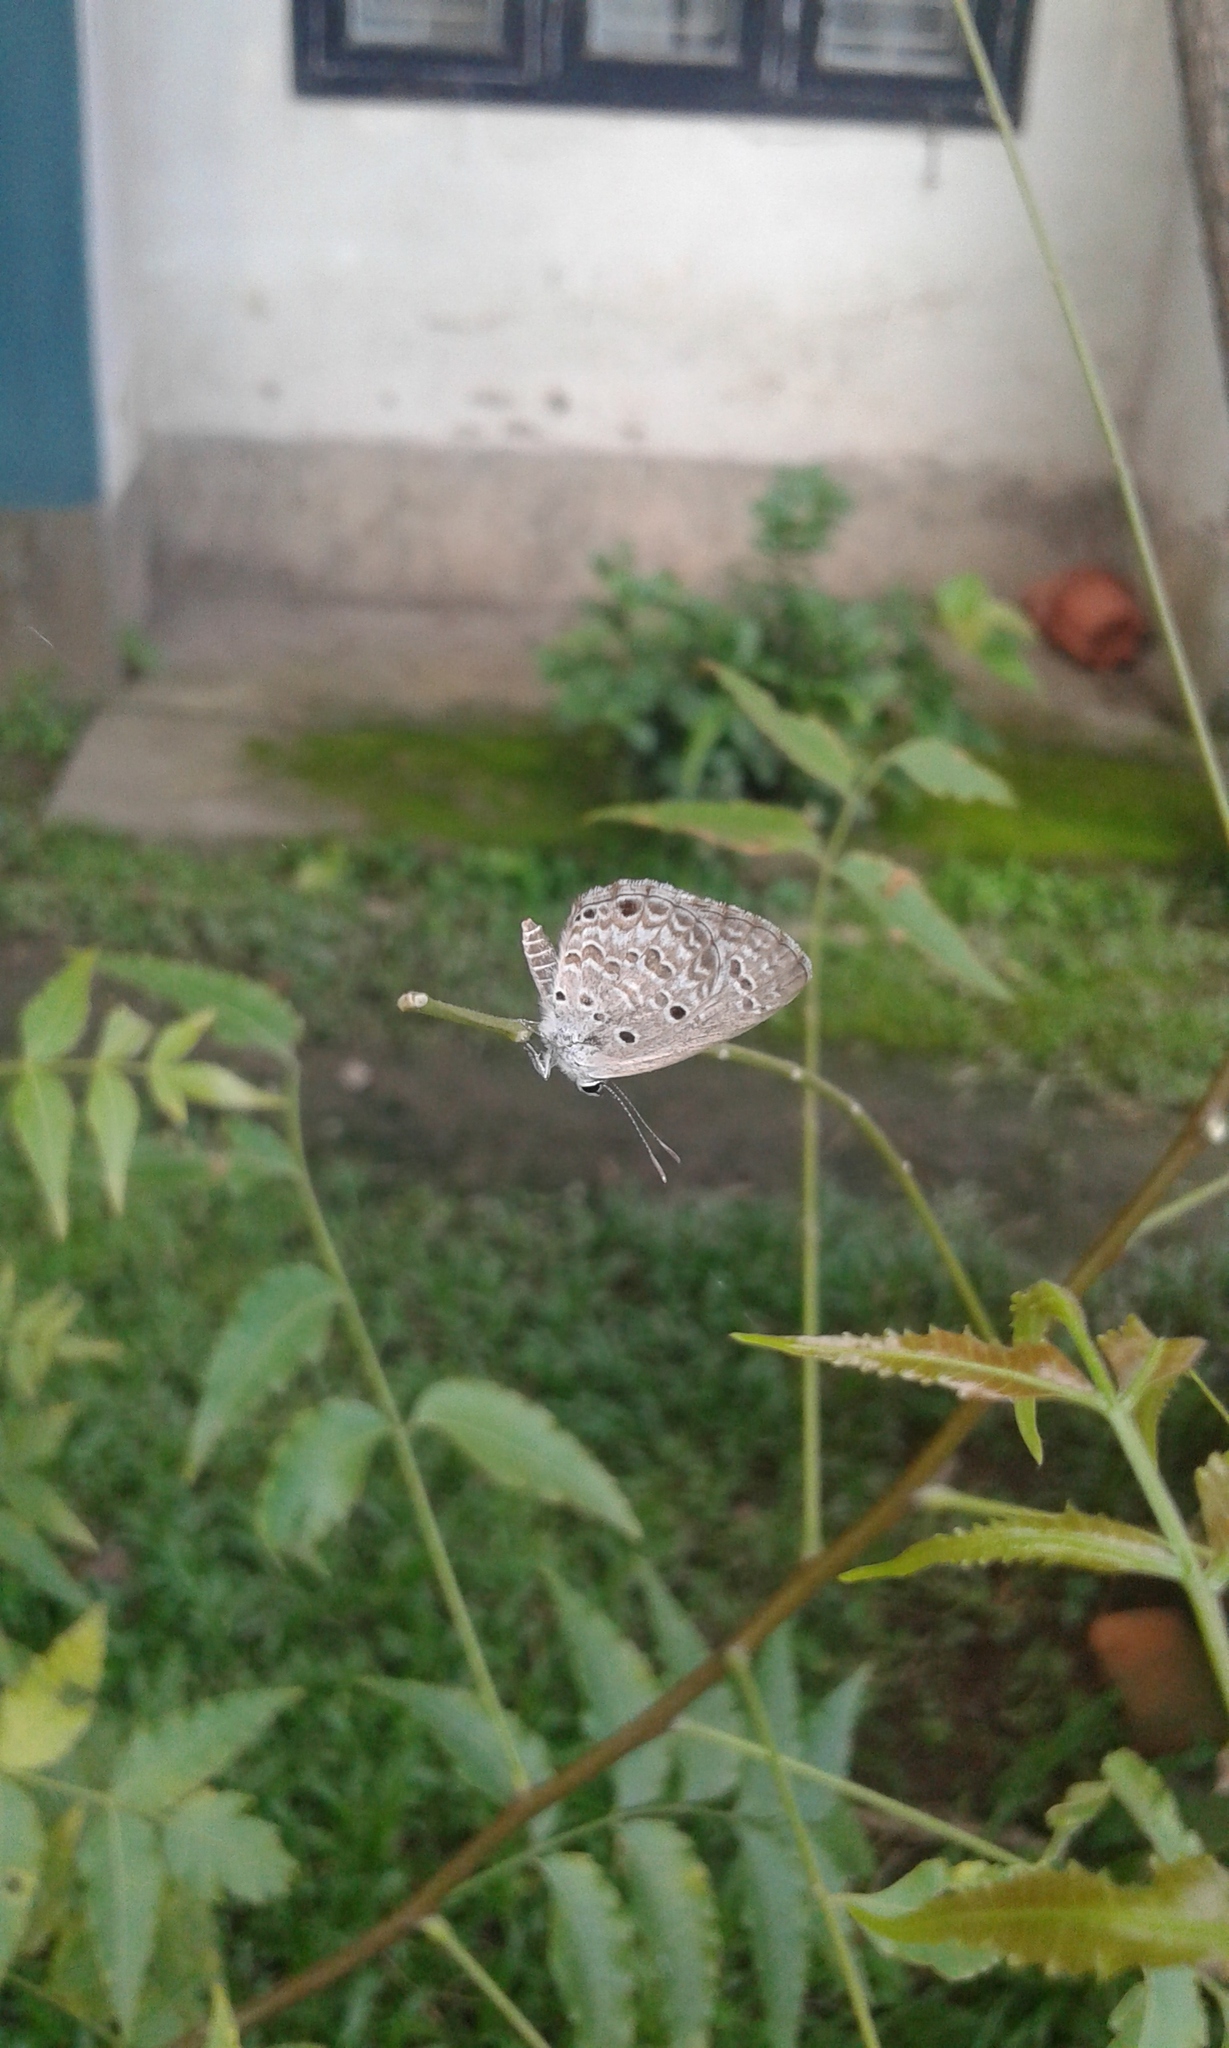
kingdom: Animalia
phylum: Arthropoda
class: Insecta
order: Lepidoptera
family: Lycaenidae
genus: Chilades
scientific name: Chilades laius
